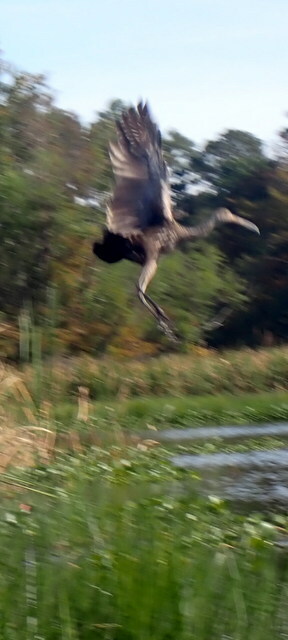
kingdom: Animalia
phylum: Chordata
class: Aves
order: Gruiformes
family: Aramidae
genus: Aramus
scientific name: Aramus guarauna
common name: Limpkin
